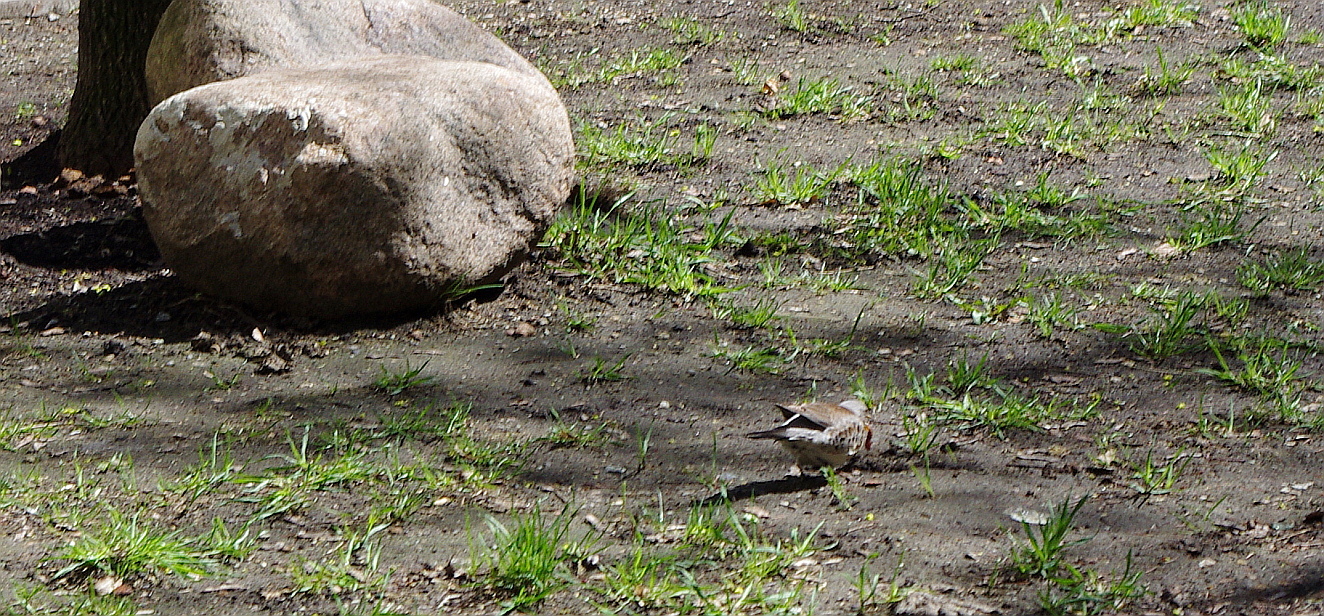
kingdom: Animalia
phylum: Chordata
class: Aves
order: Passeriformes
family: Turdidae
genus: Turdus
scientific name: Turdus pilaris
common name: Fieldfare
